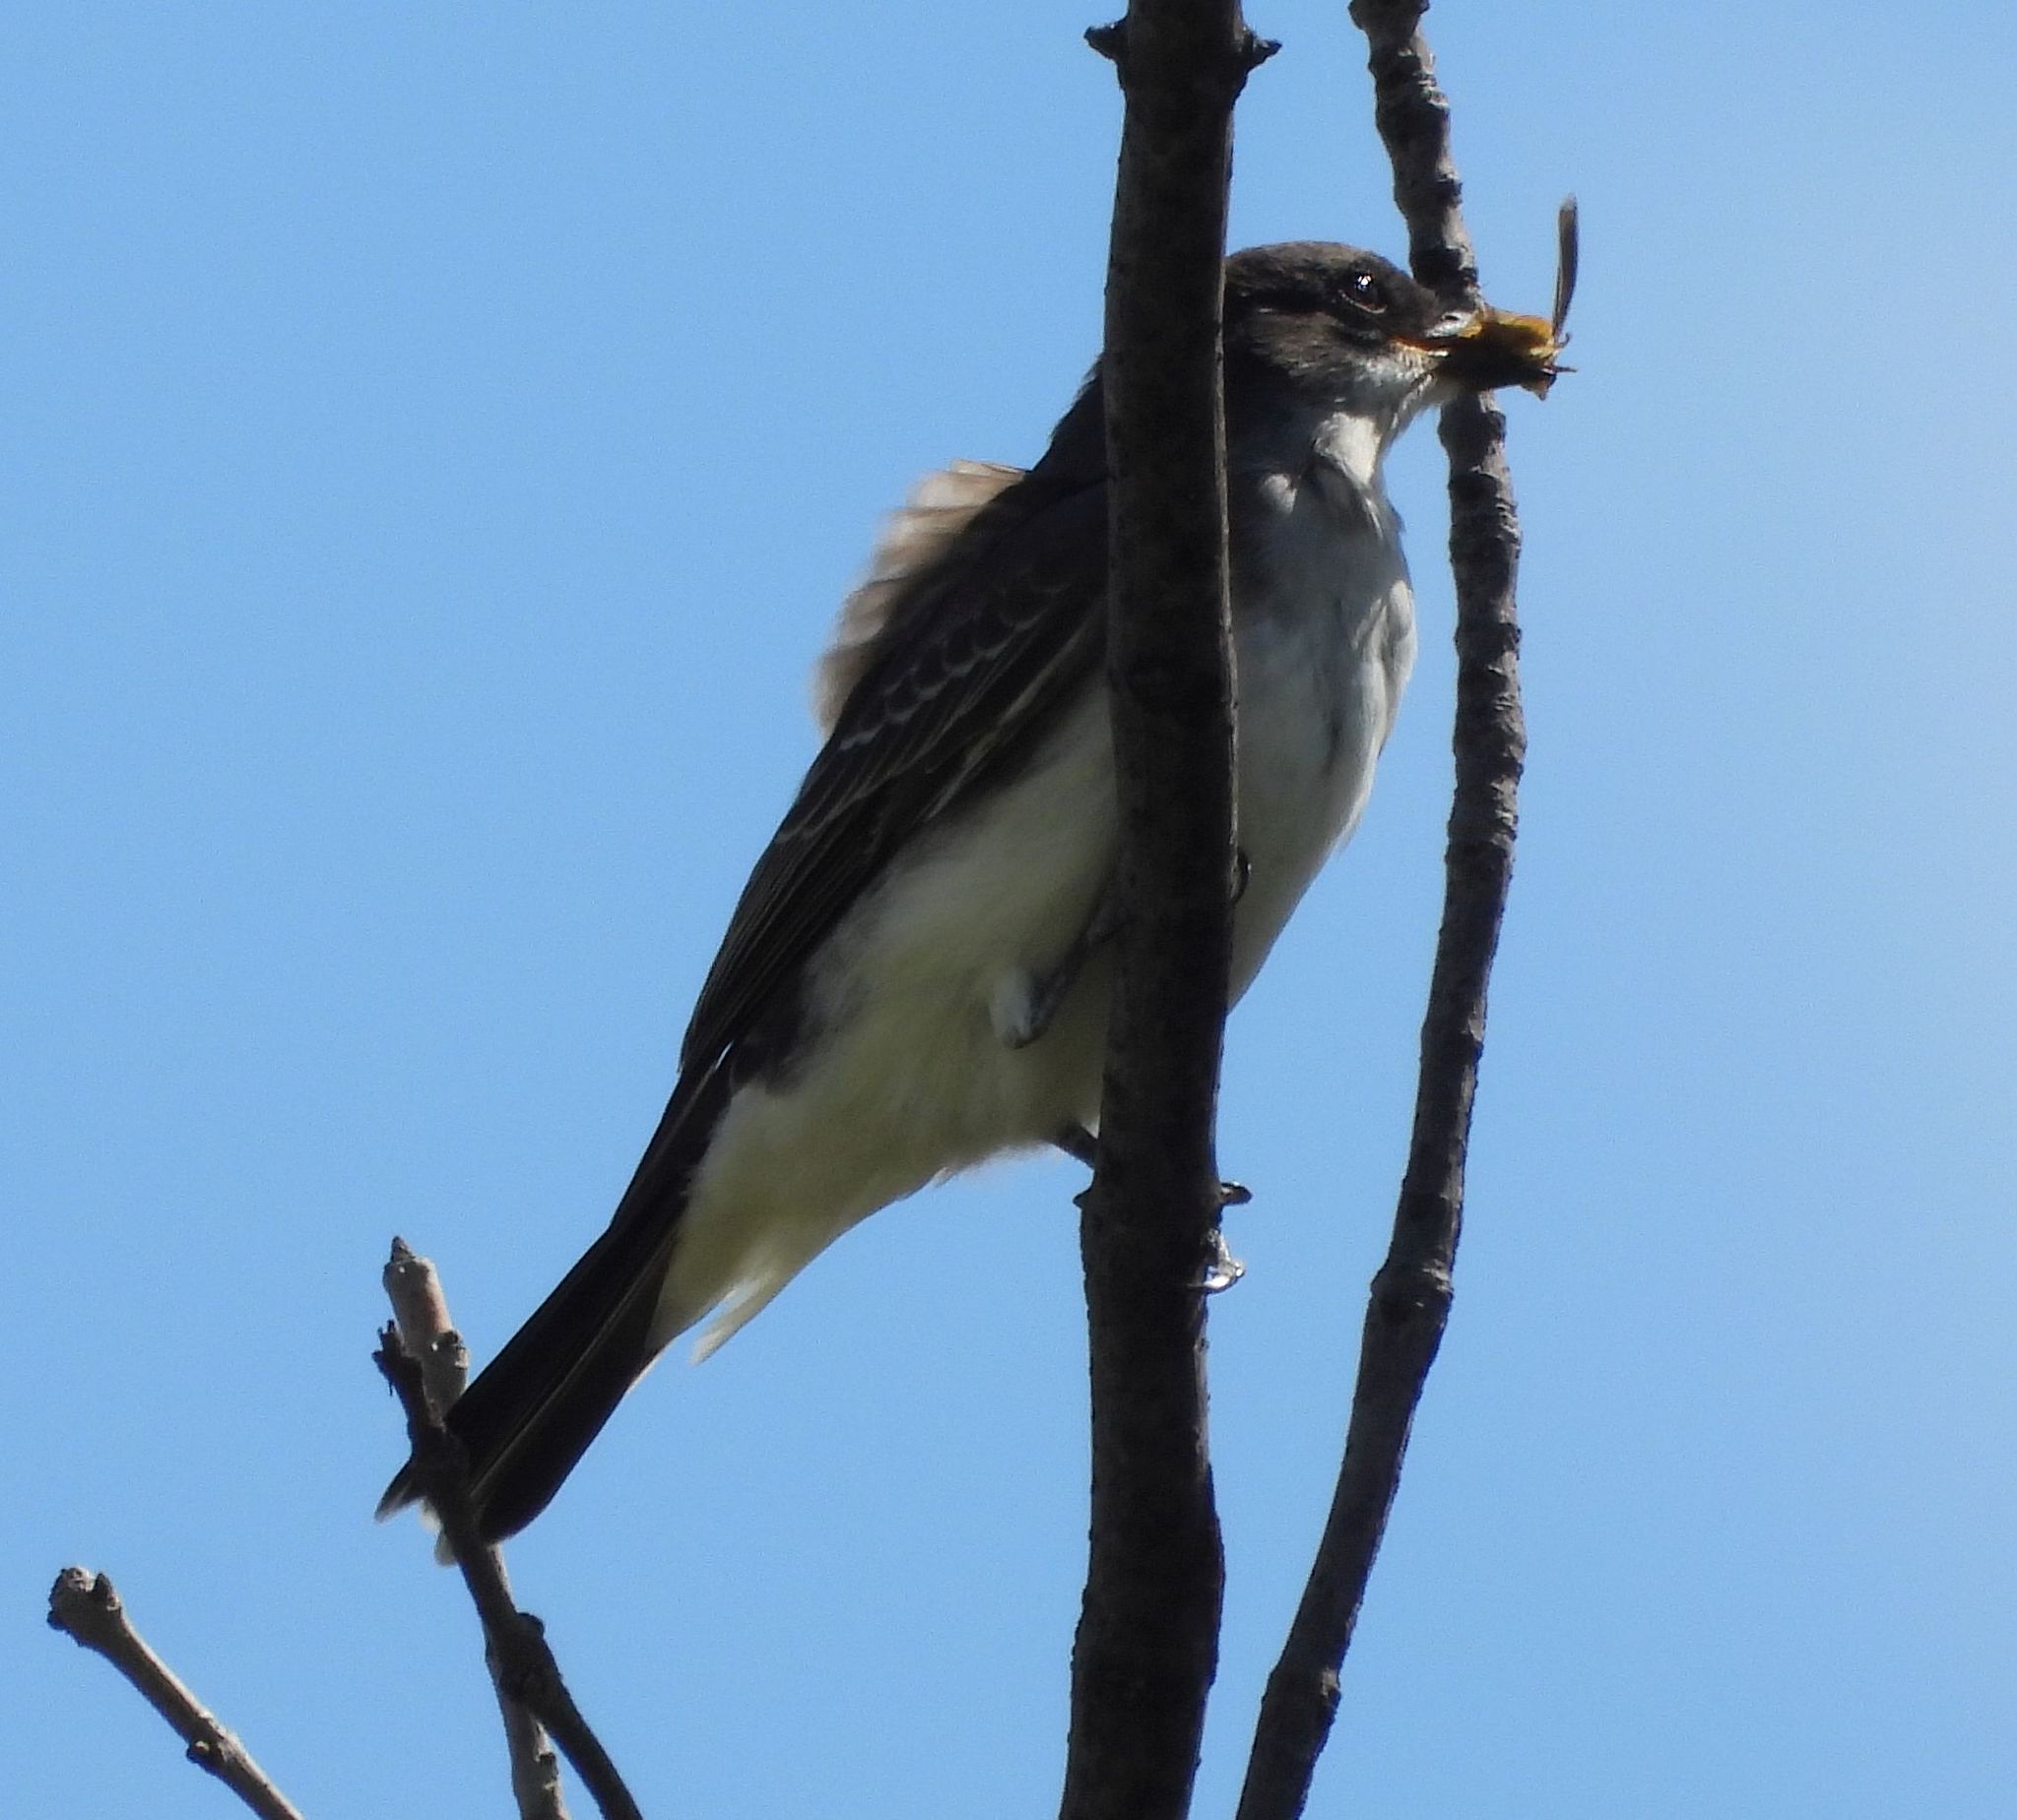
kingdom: Animalia
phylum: Chordata
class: Aves
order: Passeriformes
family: Tyrannidae
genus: Tyrannus
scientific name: Tyrannus tyrannus
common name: Eastern kingbird
